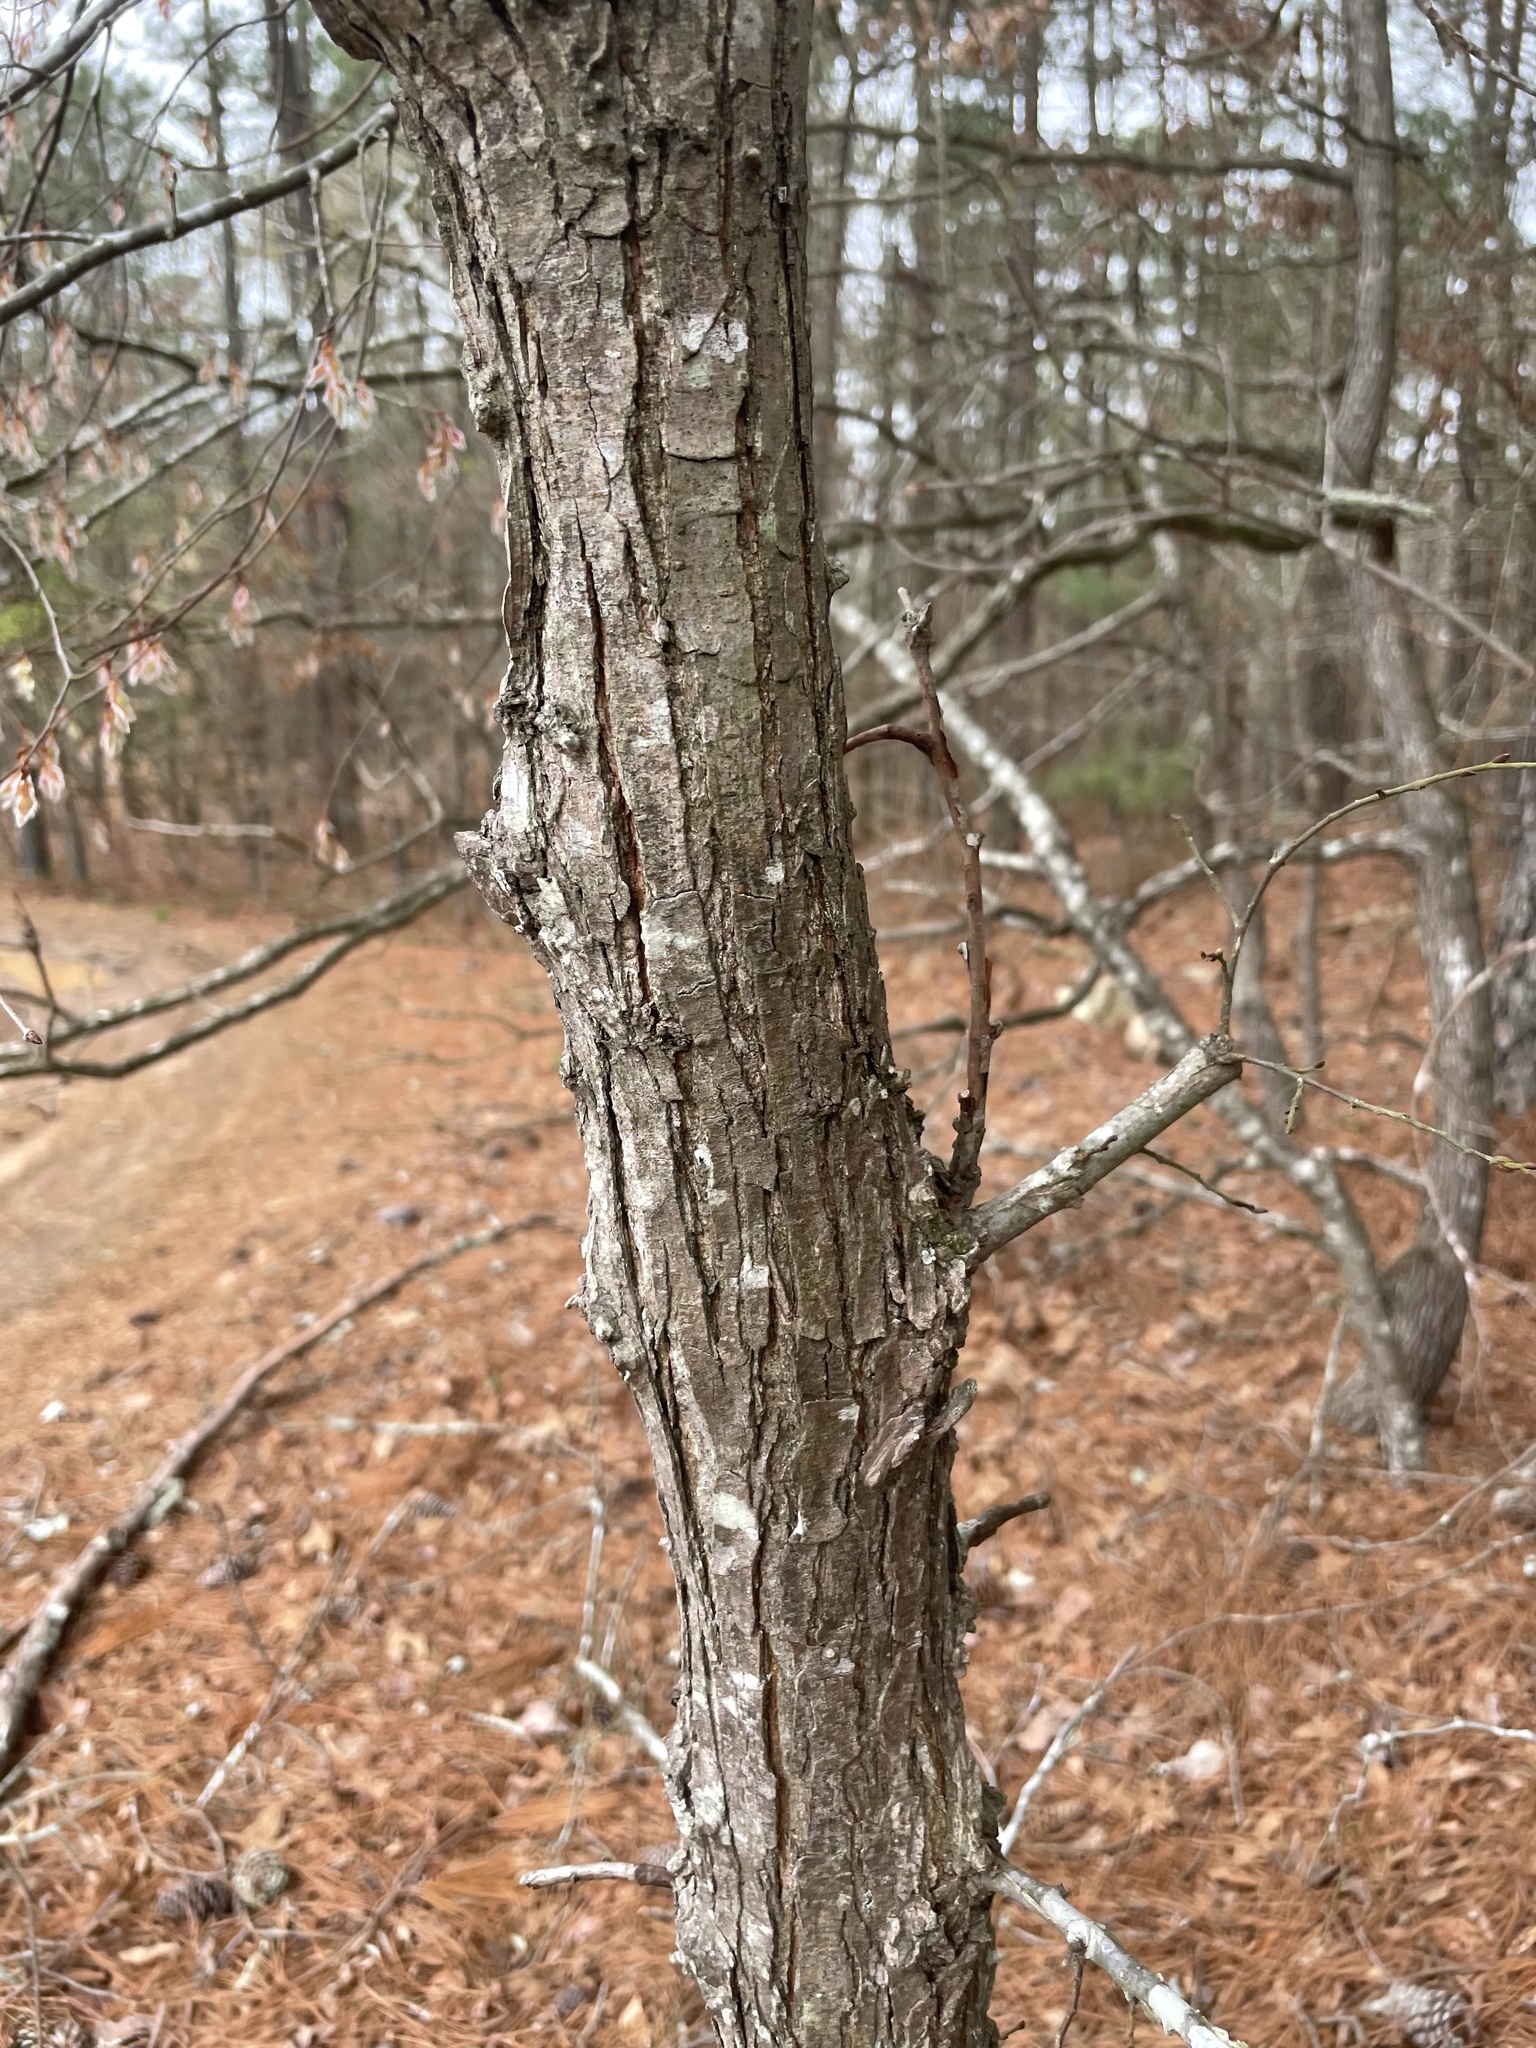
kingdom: Plantae
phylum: Tracheophyta
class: Magnoliopsida
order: Rosales
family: Ulmaceae
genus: Ulmus
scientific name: Ulmus alata
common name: Winged elm
